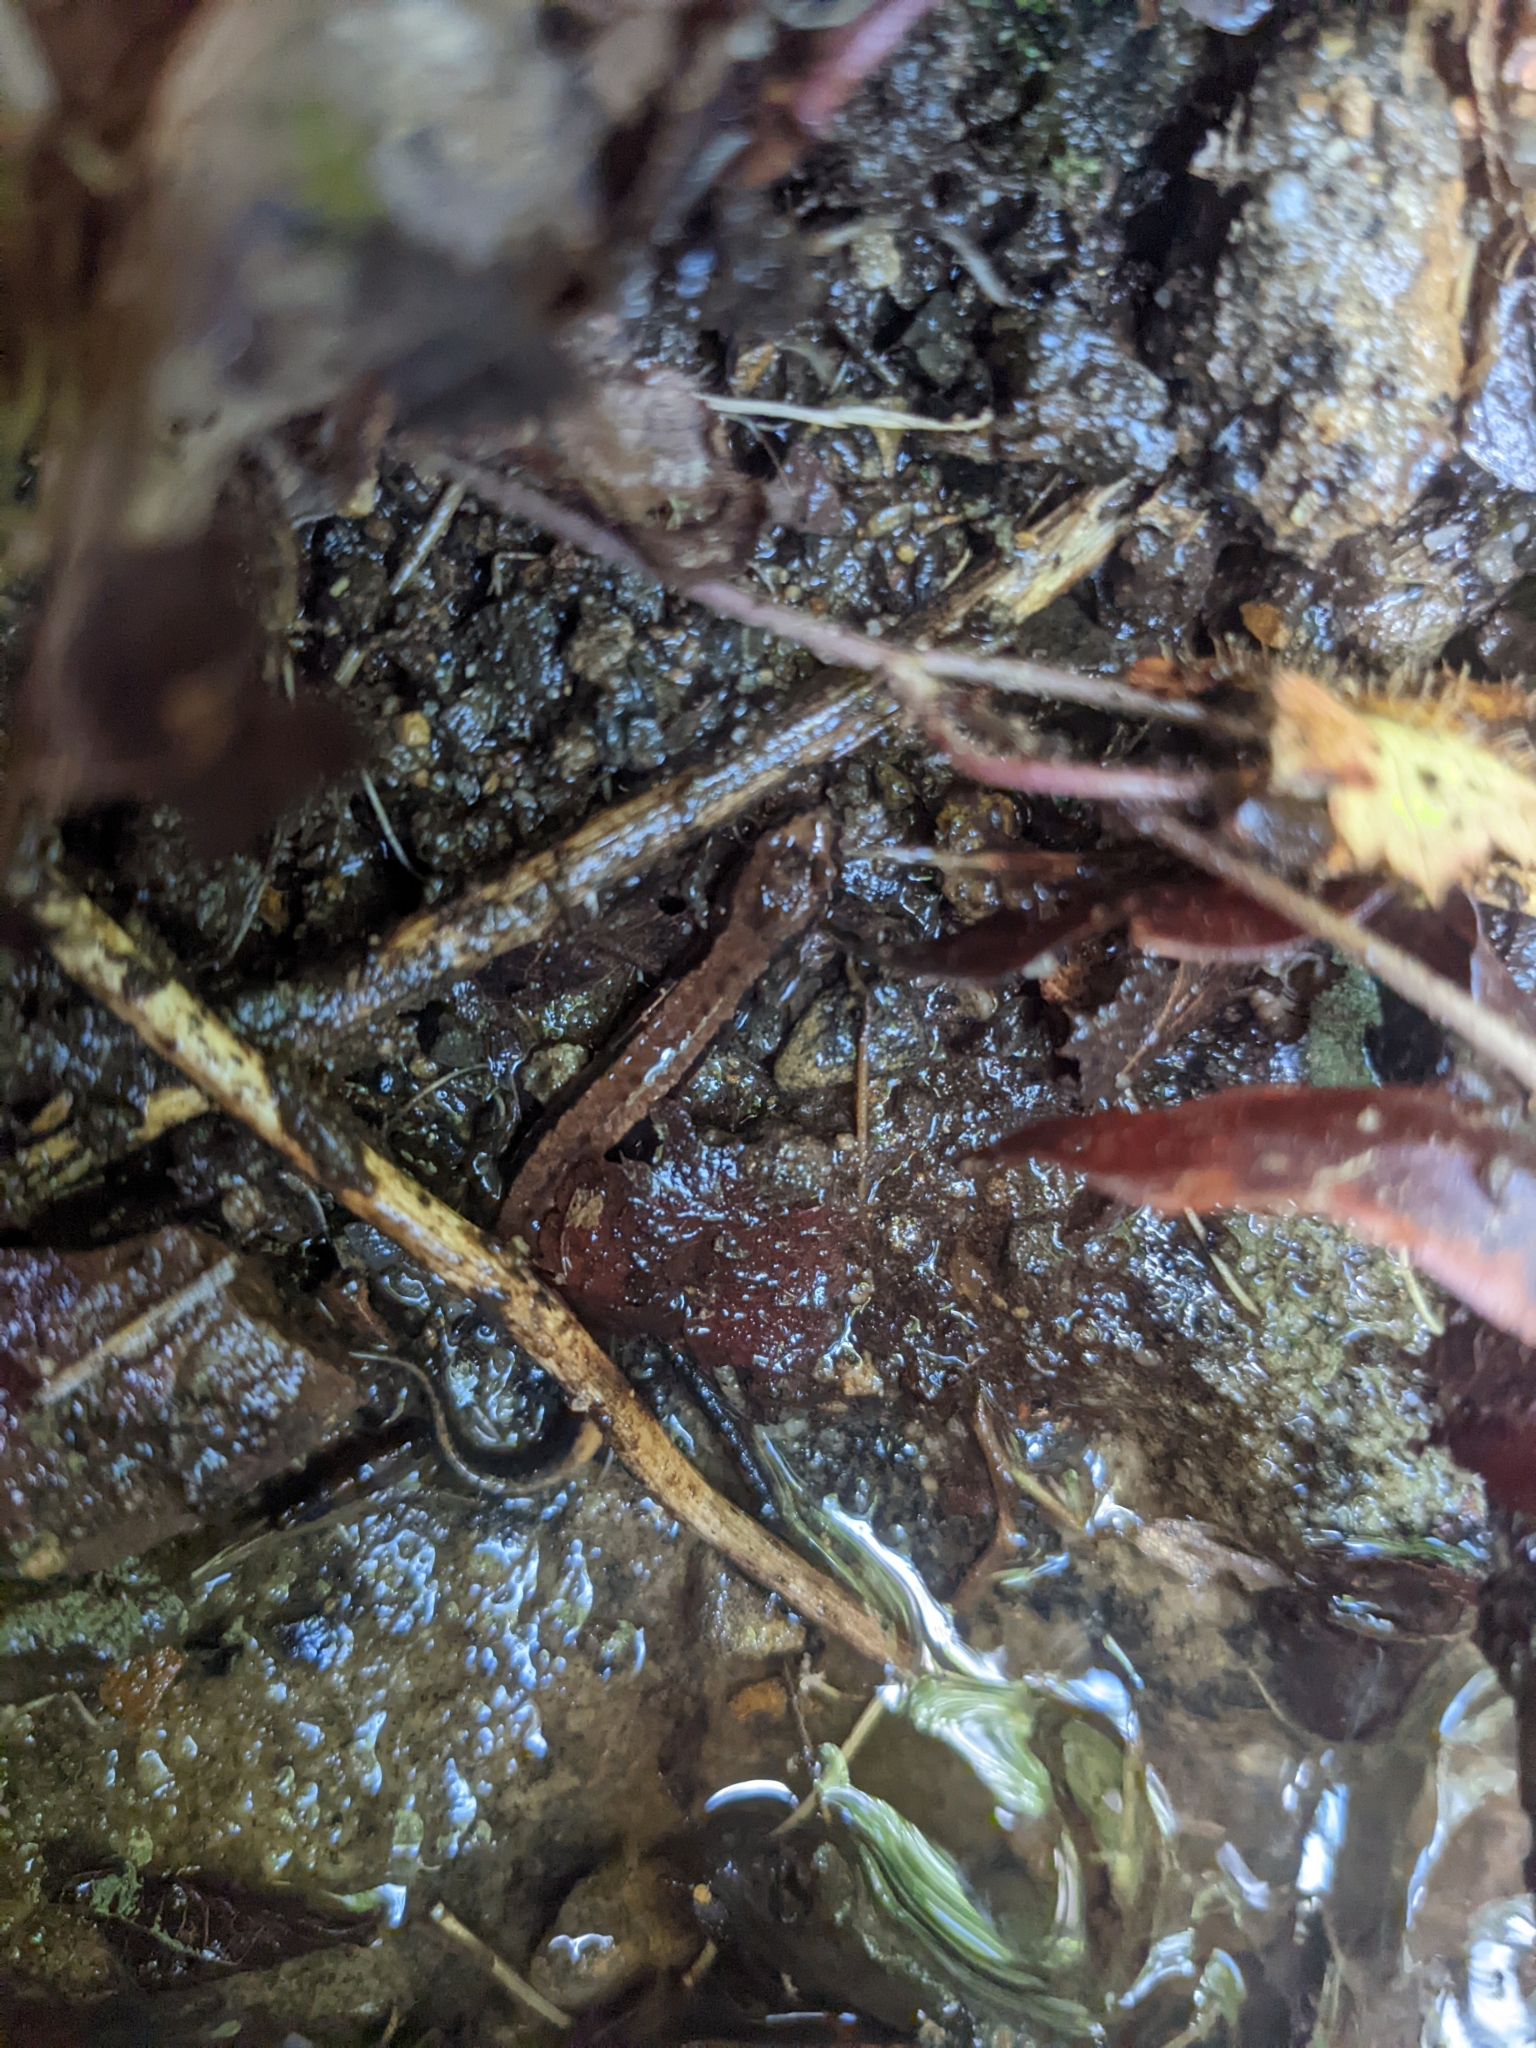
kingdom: Animalia
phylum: Chordata
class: Amphibia
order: Caudata
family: Plethodontidae
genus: Desmognathus
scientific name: Desmognathus ochrophaeus
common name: Allegheny mountain dusky salamander
